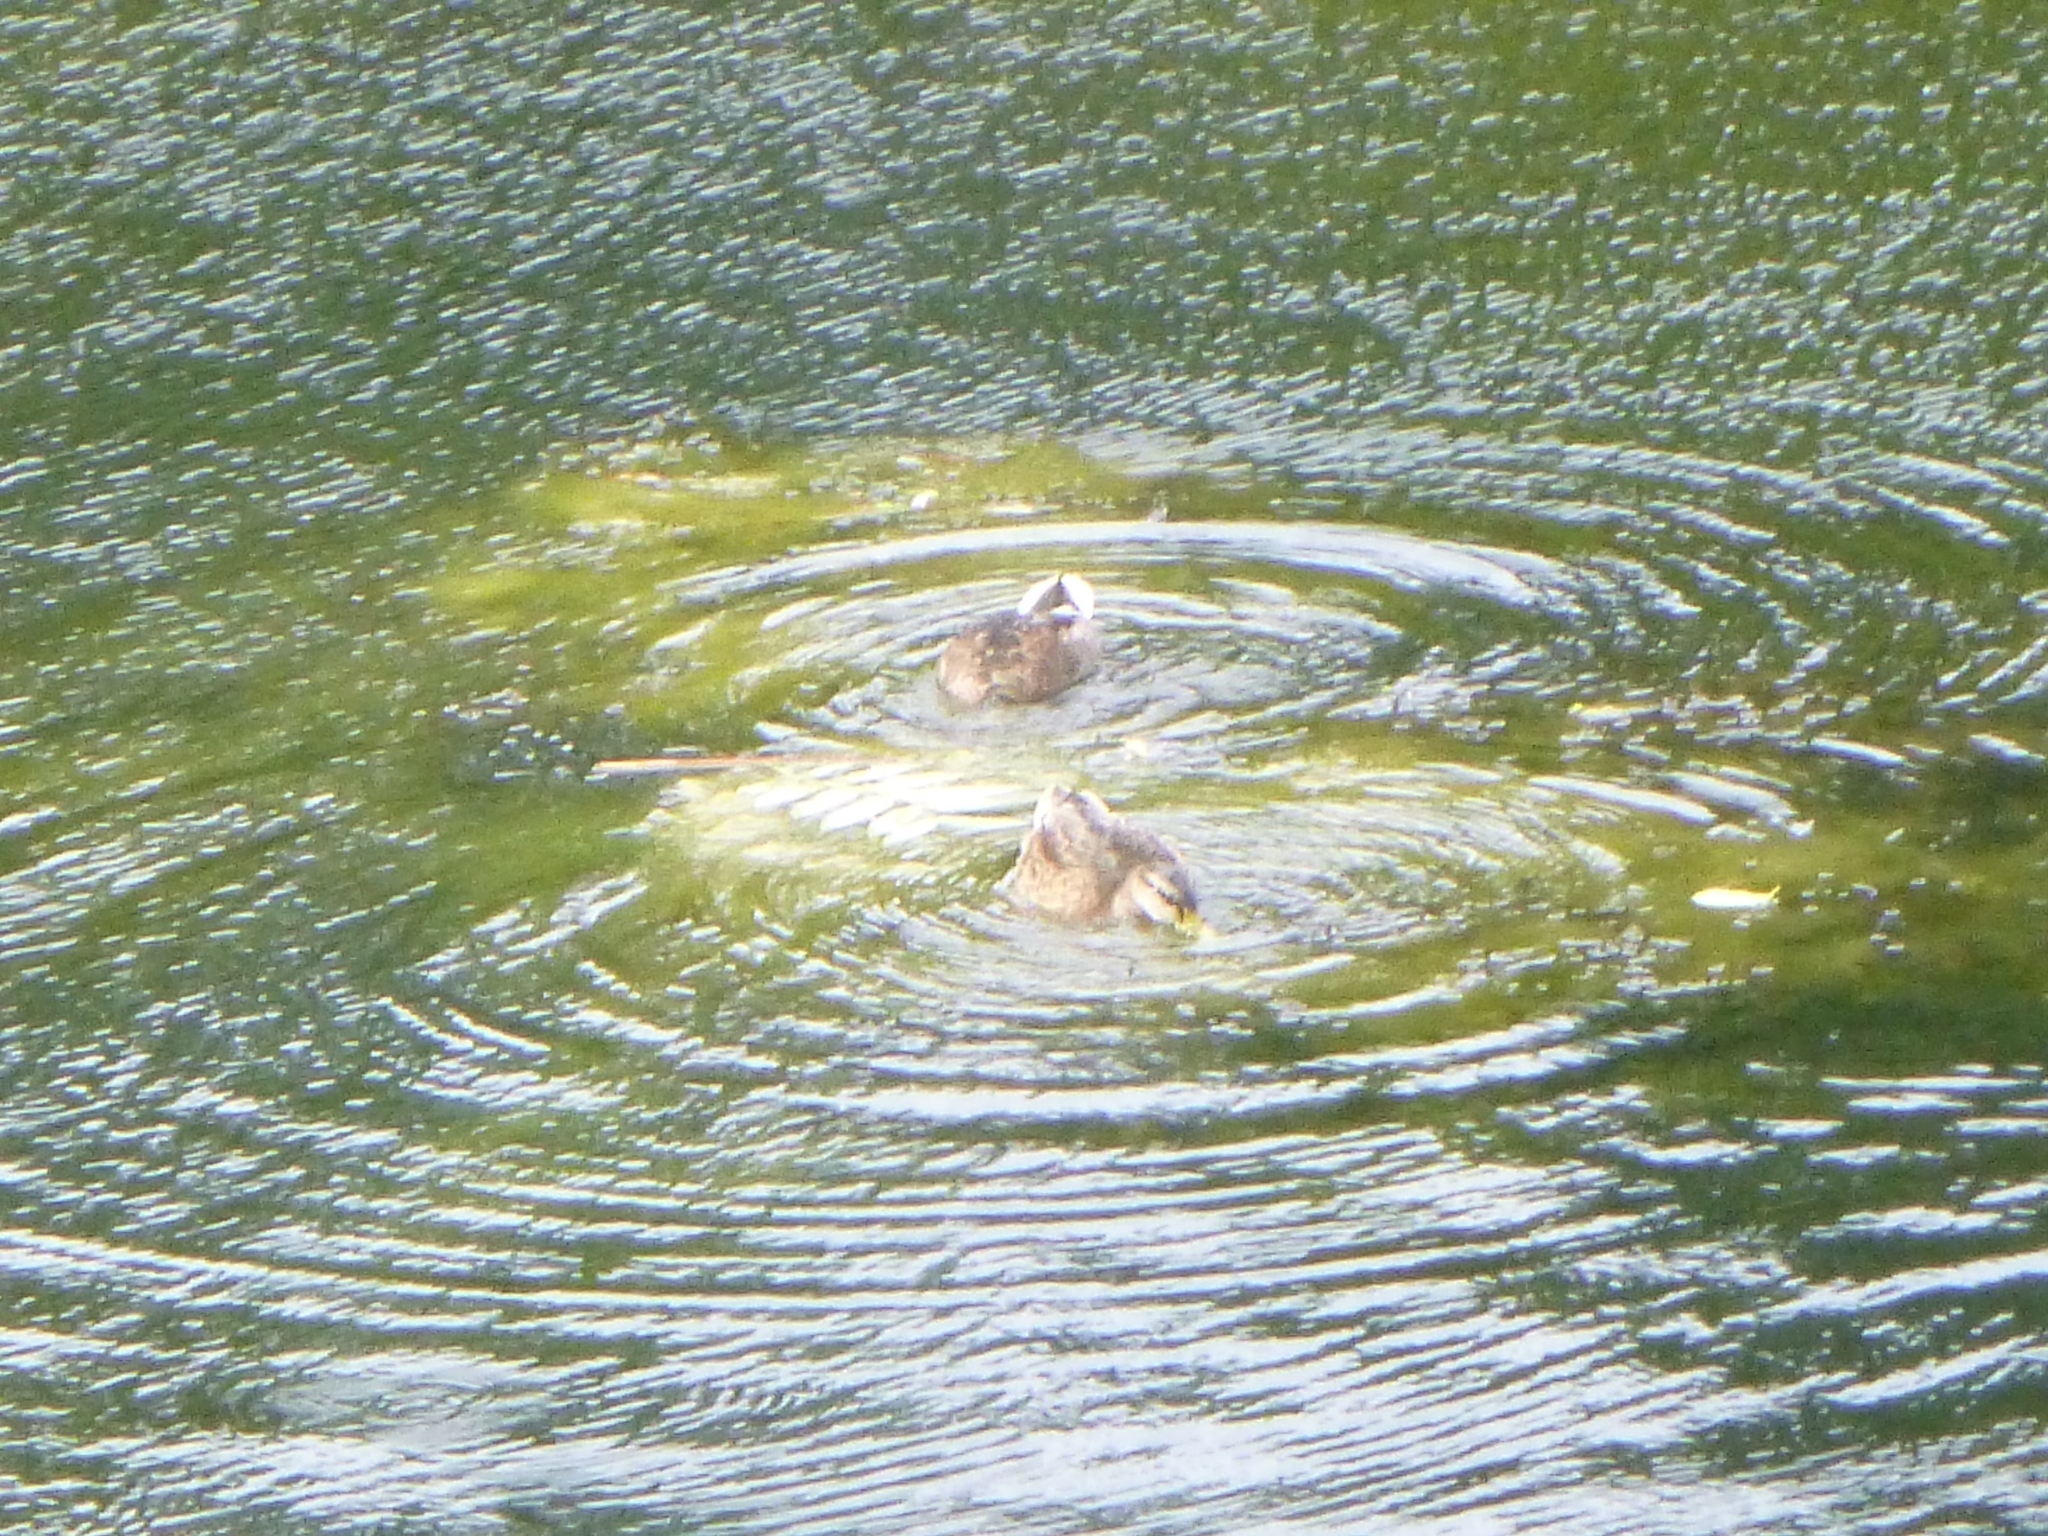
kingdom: Animalia
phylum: Chordata
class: Aves
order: Anseriformes
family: Anatidae
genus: Anas
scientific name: Anas platyrhynchos
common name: Mallard
